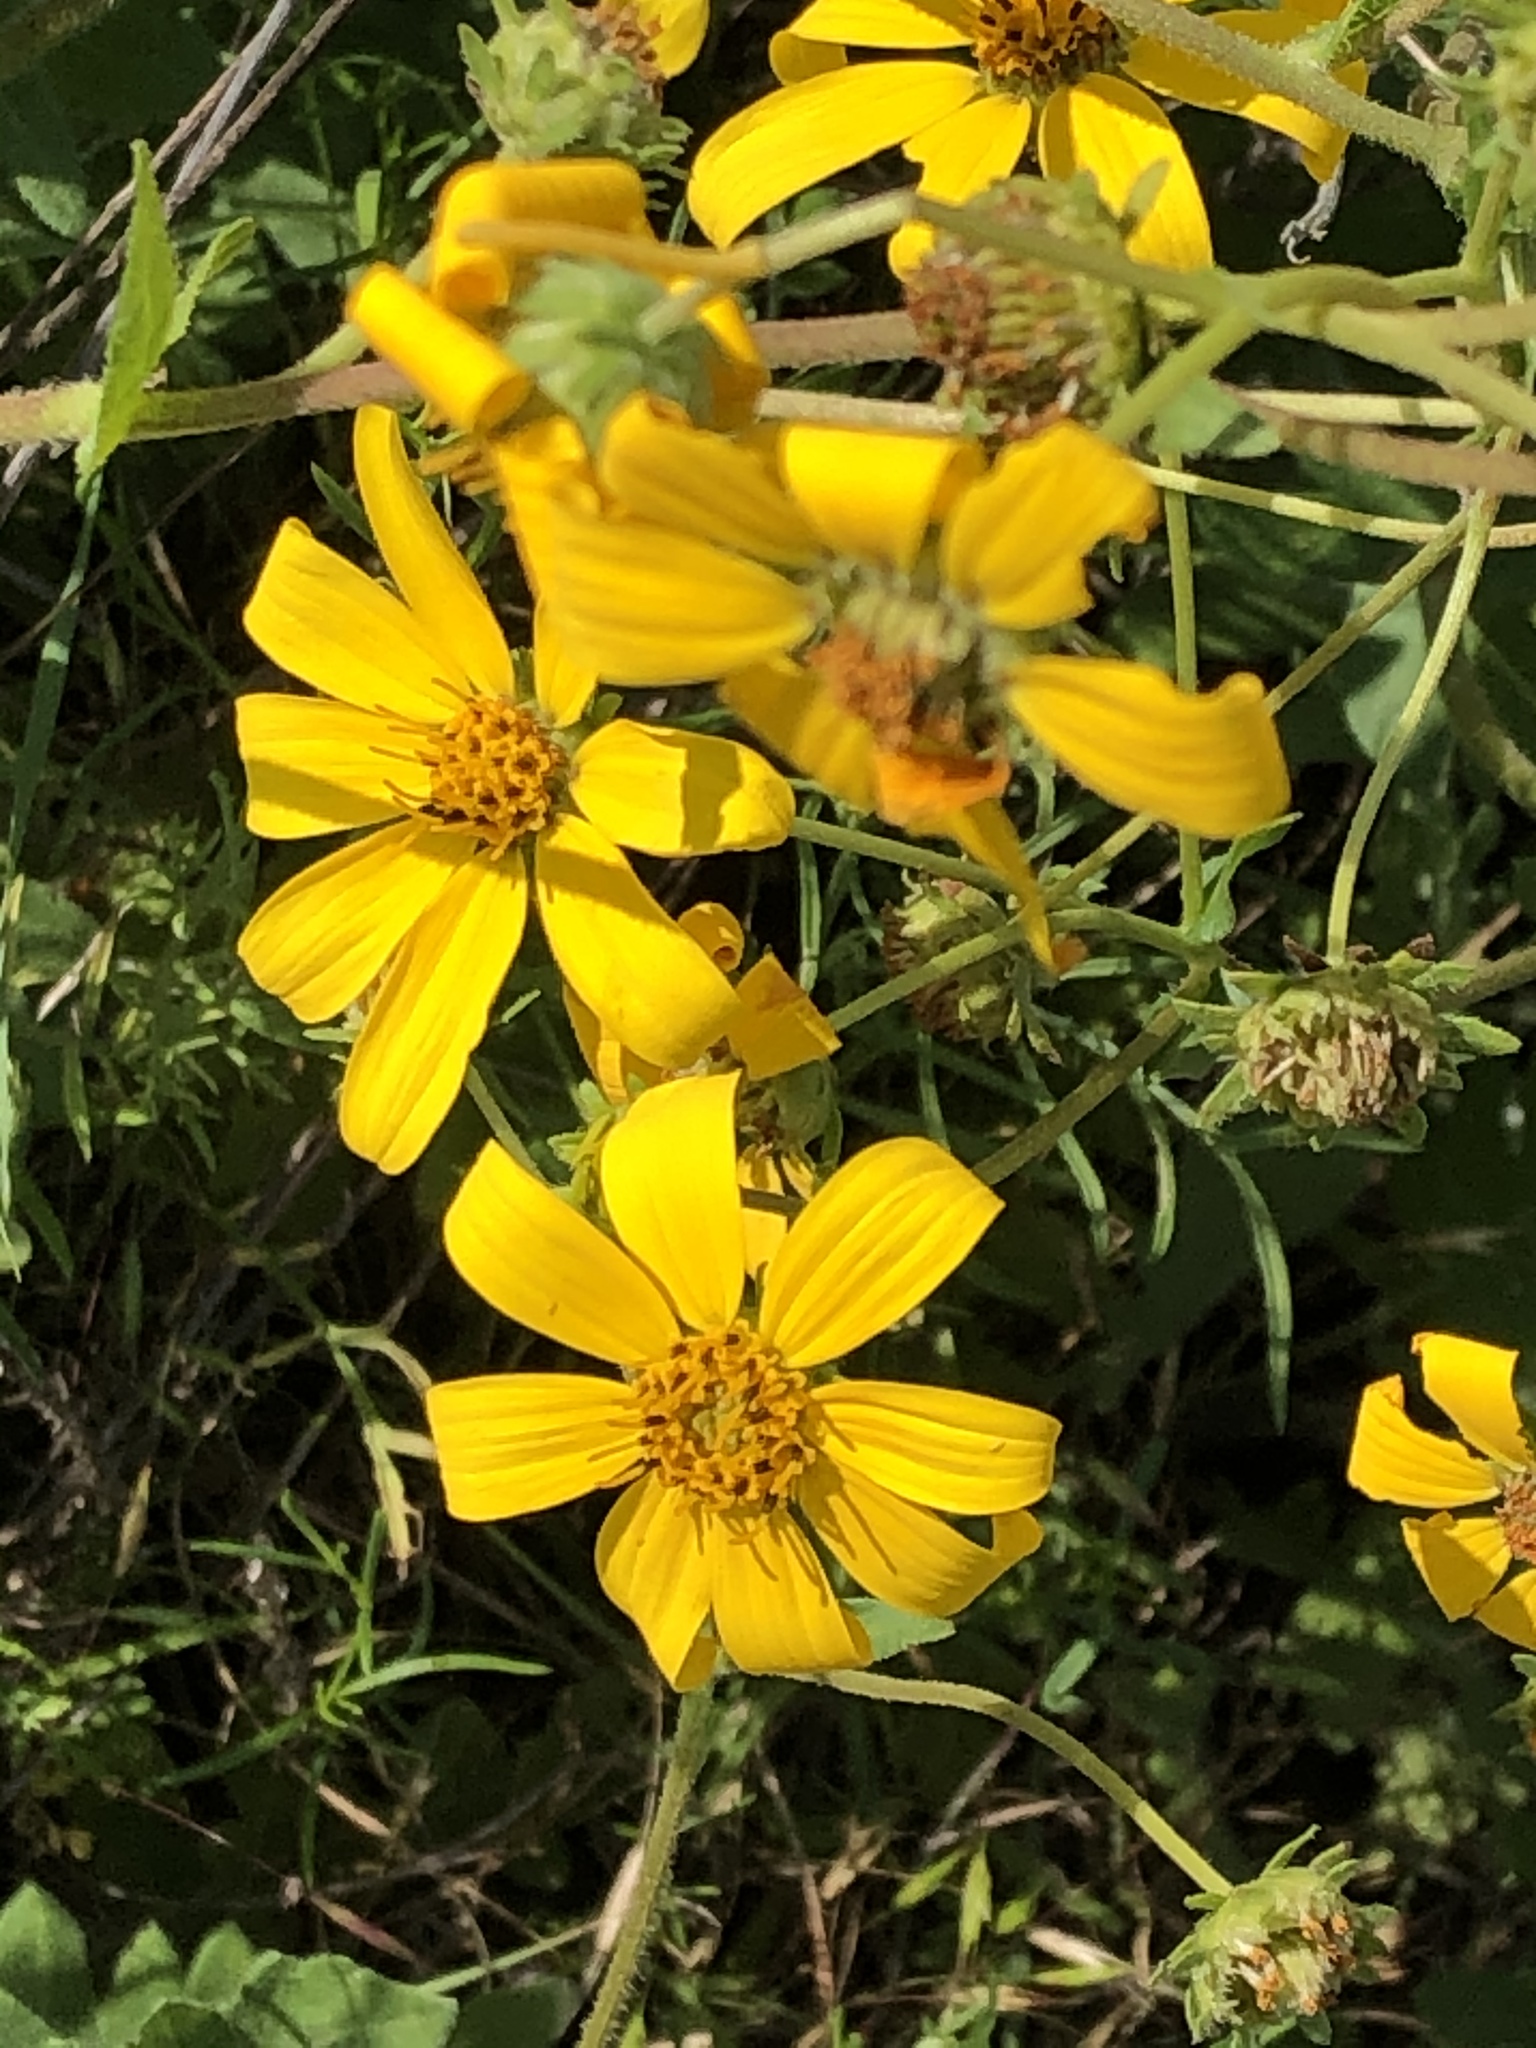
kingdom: Plantae
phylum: Tracheophyta
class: Magnoliopsida
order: Asterales
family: Asteraceae
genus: Engelmannia
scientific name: Engelmannia peristenia
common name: Engelmann's daisy
